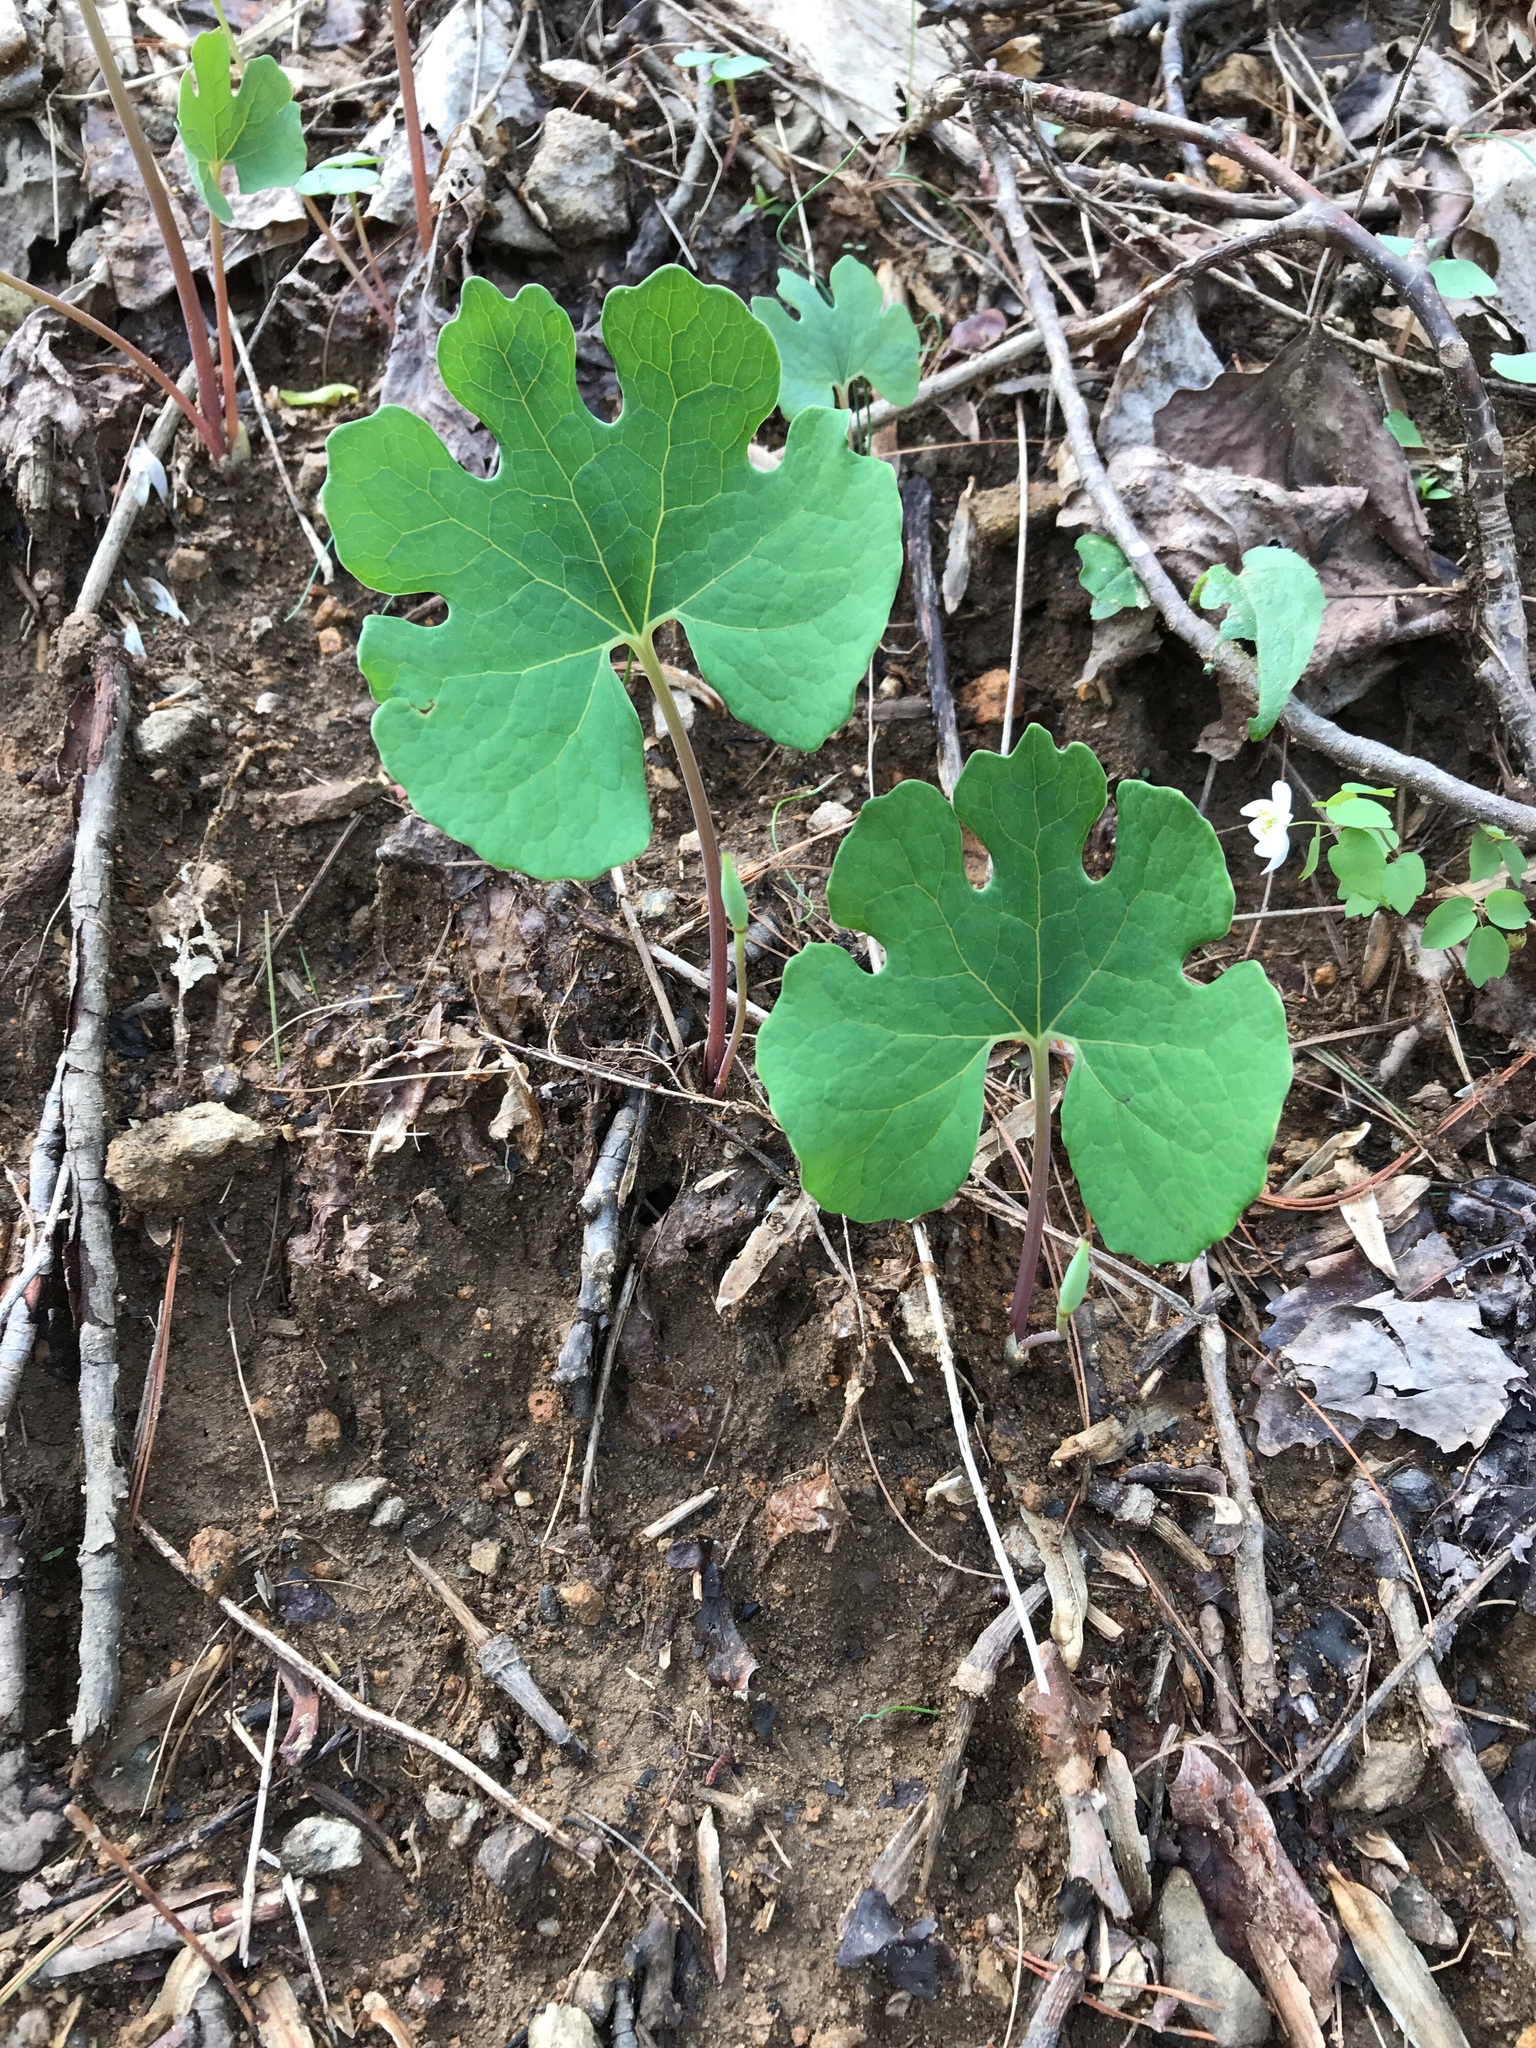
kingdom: Plantae
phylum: Tracheophyta
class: Magnoliopsida
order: Ranunculales
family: Papaveraceae
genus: Sanguinaria
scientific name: Sanguinaria canadensis
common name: Bloodroot
